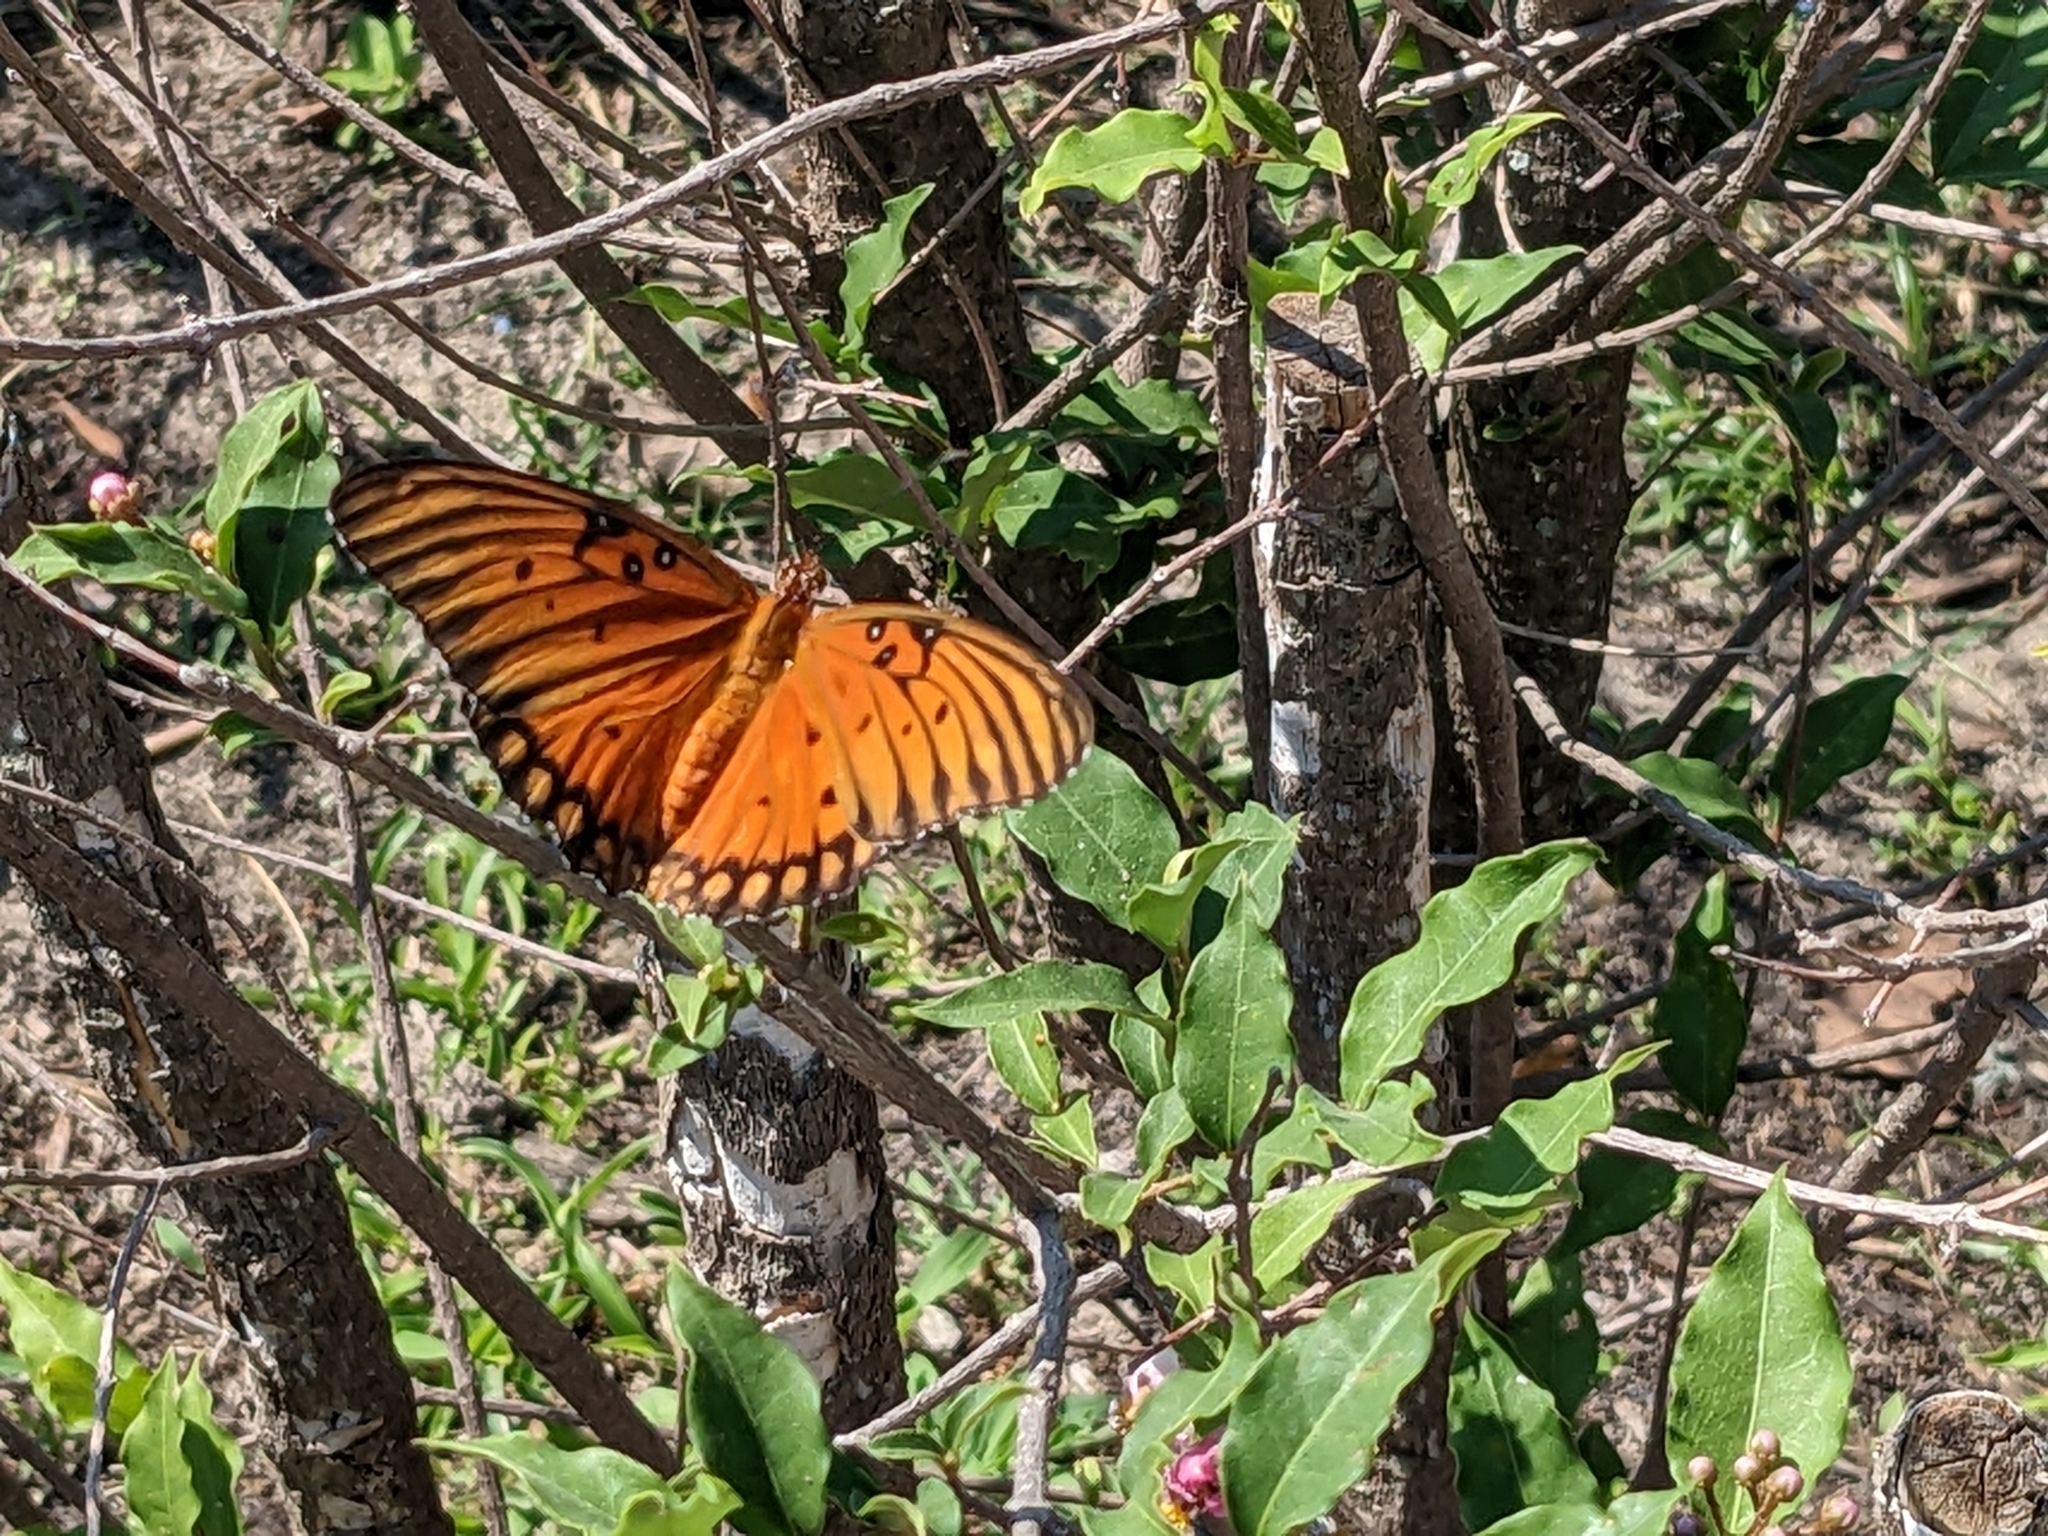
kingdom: Animalia
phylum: Arthropoda
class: Insecta
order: Lepidoptera
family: Nymphalidae
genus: Dione
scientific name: Dione vanillae
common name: Gulf fritillary
